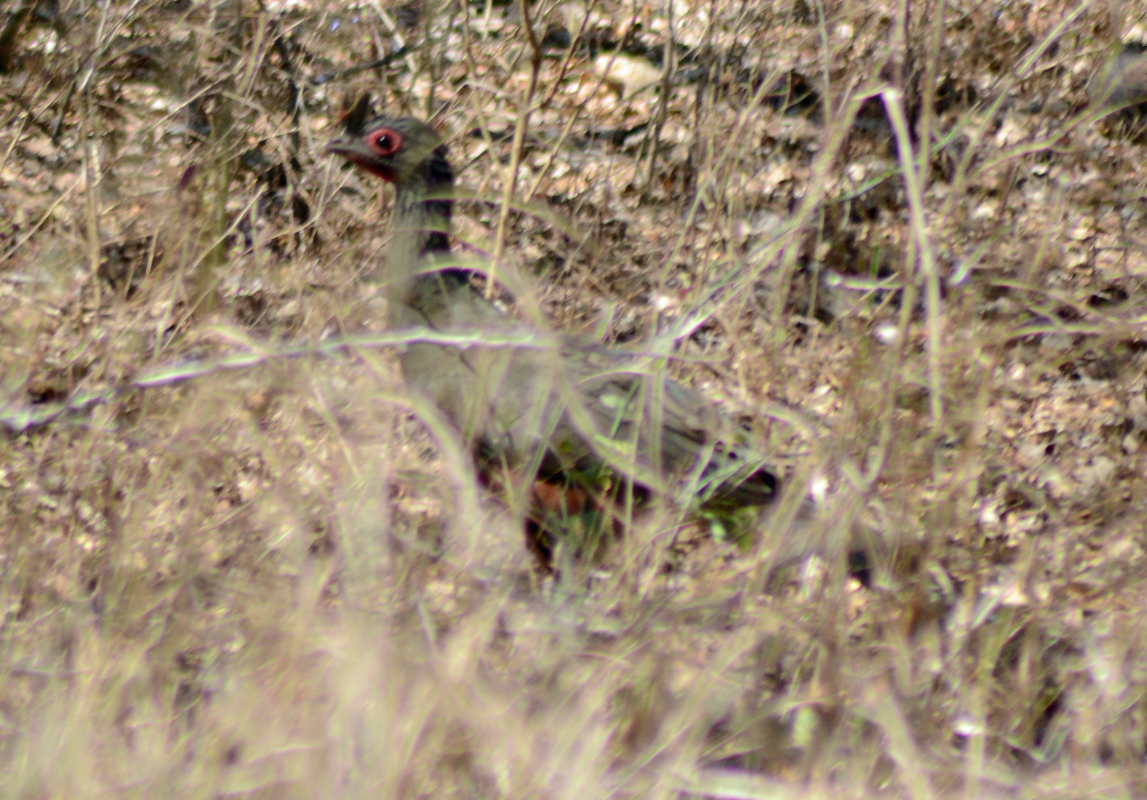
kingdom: Animalia
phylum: Chordata
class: Aves
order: Galliformes
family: Cracidae
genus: Ortalis
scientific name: Ortalis wagleri
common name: Rufous-bellied chachalaca
